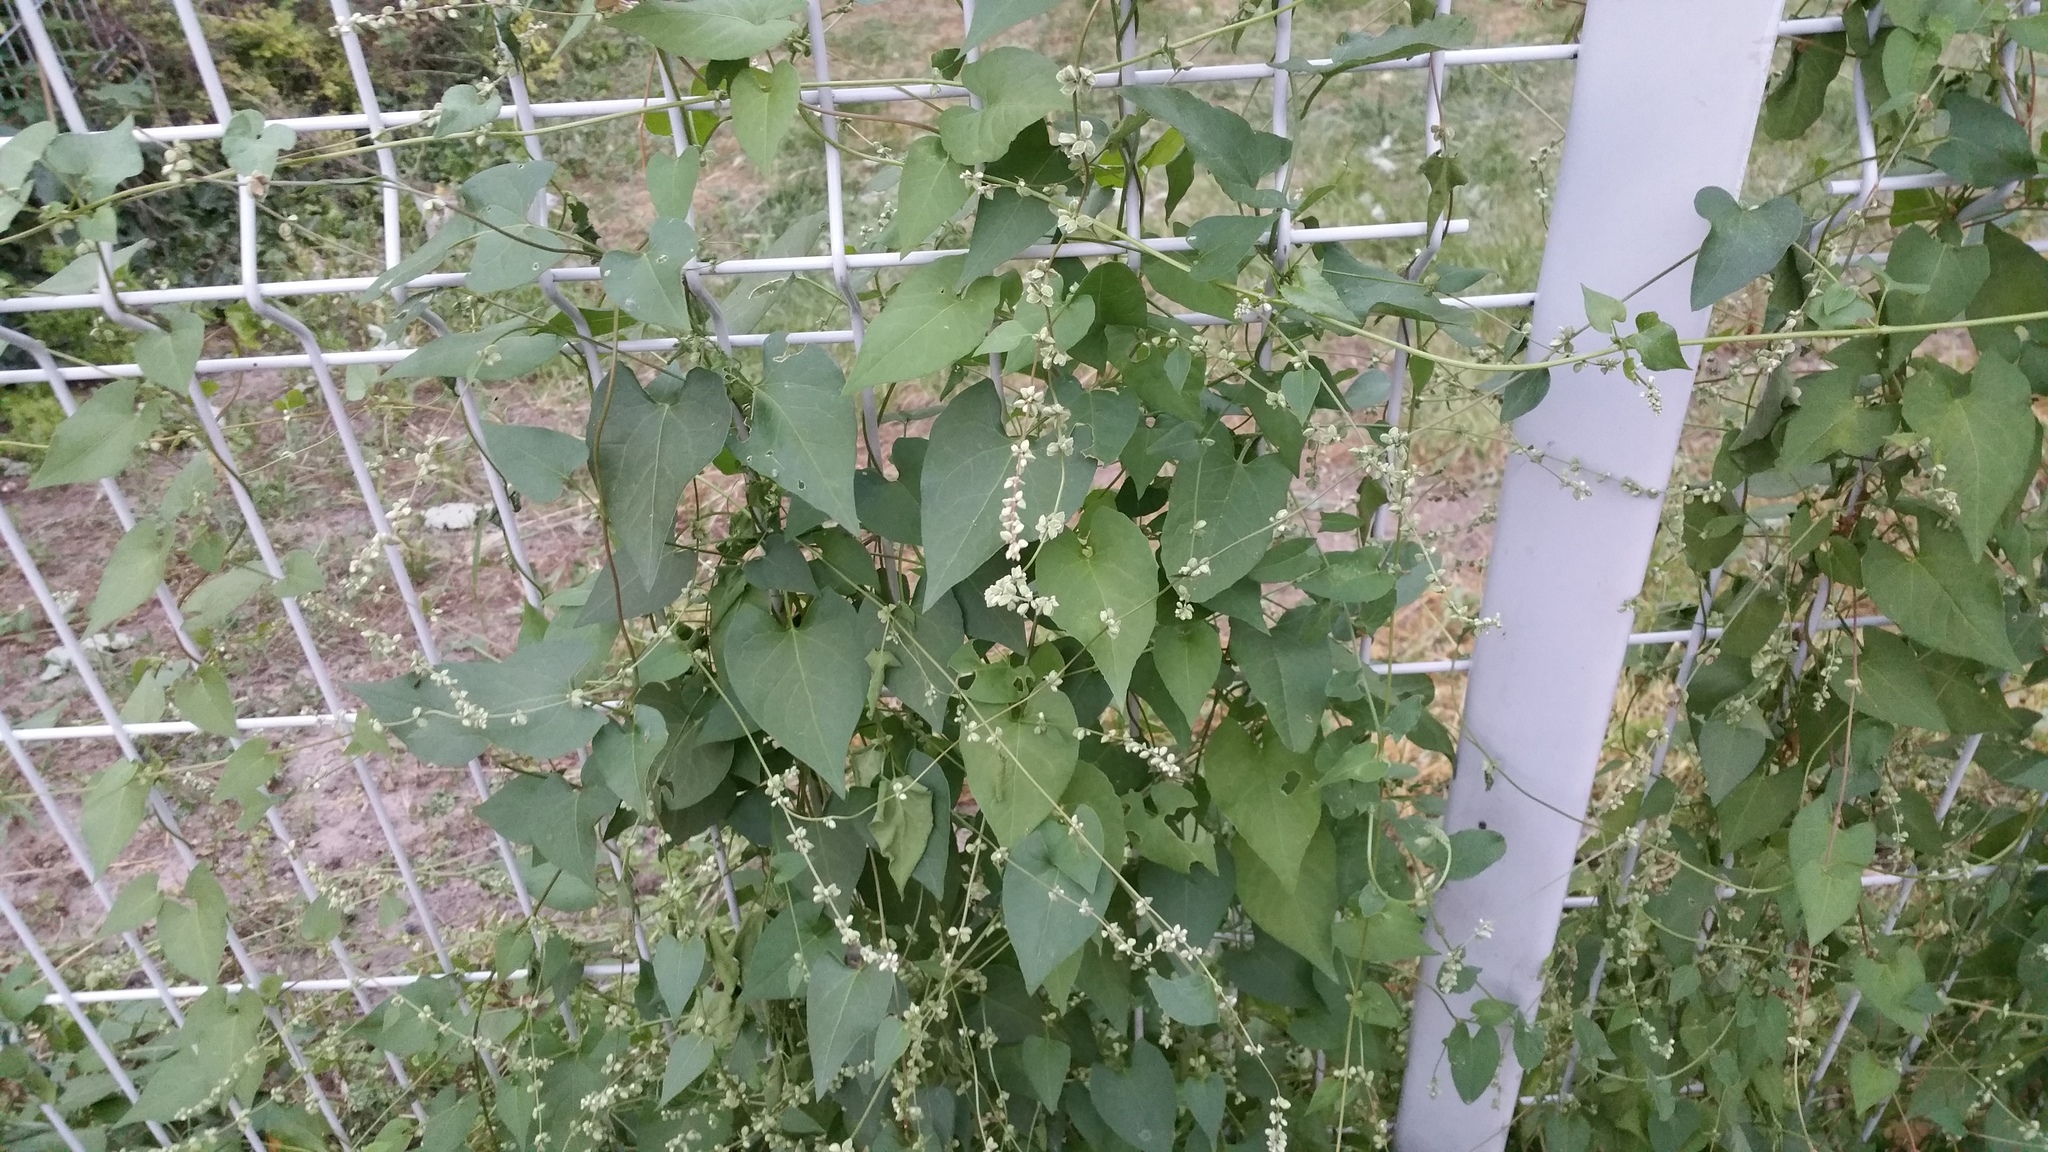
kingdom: Plantae
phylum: Tracheophyta
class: Magnoliopsida
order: Caryophyllales
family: Polygonaceae
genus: Fallopia
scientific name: Fallopia convolvulus
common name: Black bindweed
